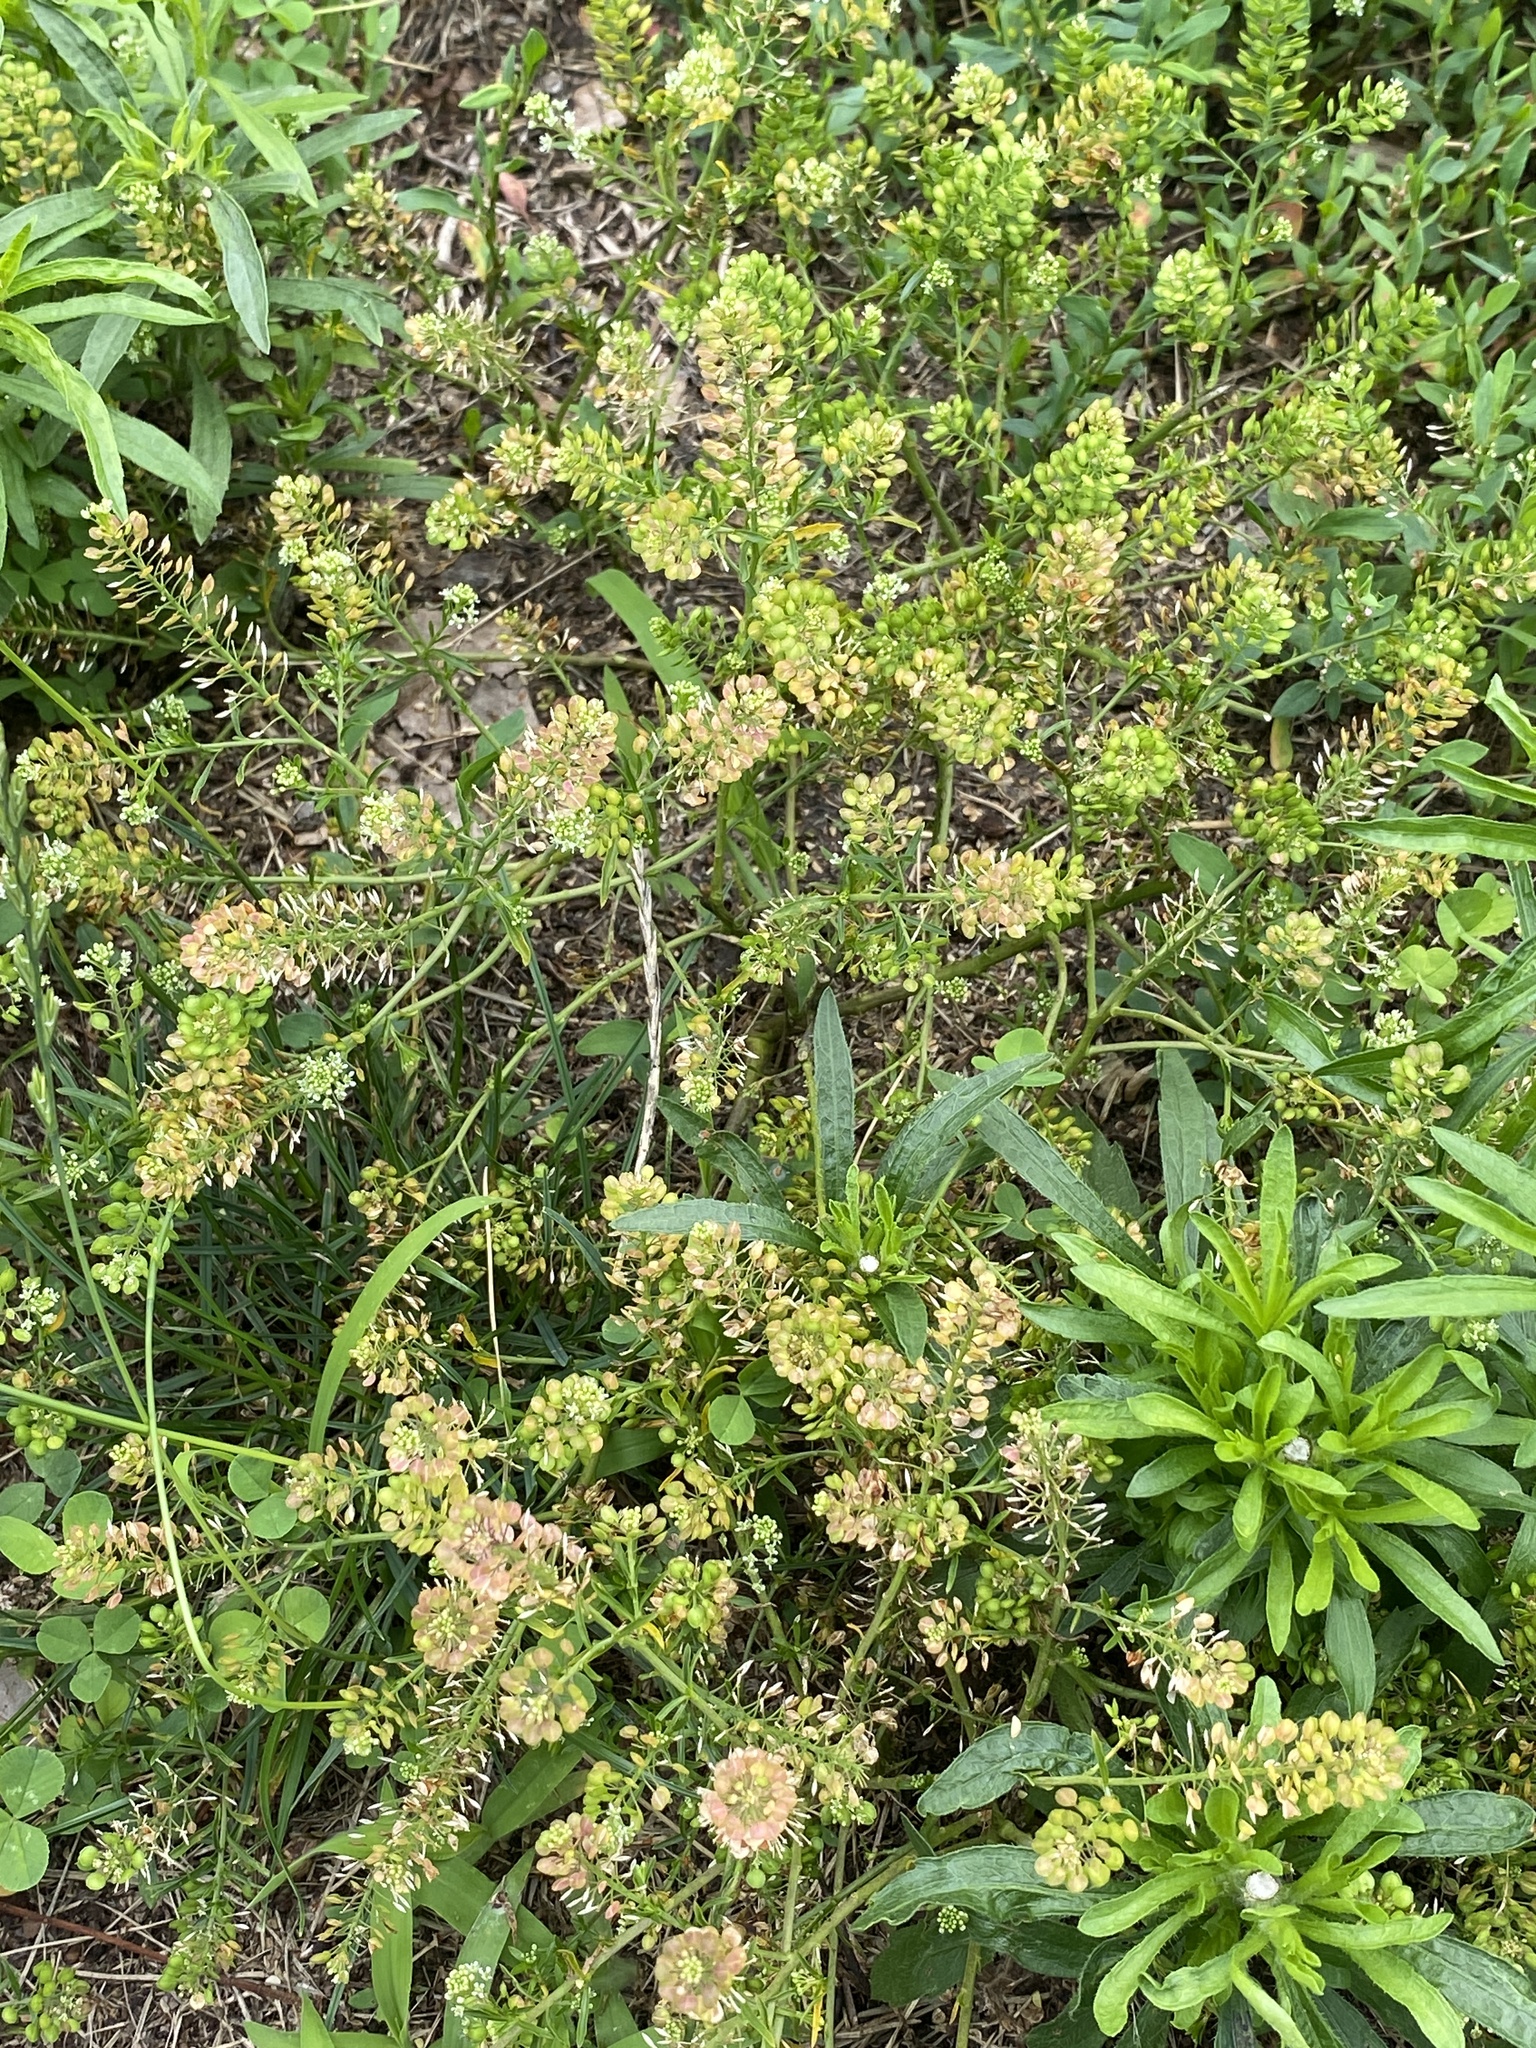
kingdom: Plantae
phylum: Tracheophyta
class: Magnoliopsida
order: Brassicales
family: Brassicaceae
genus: Lepidium
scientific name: Lepidium virginicum
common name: Least pepperwort
